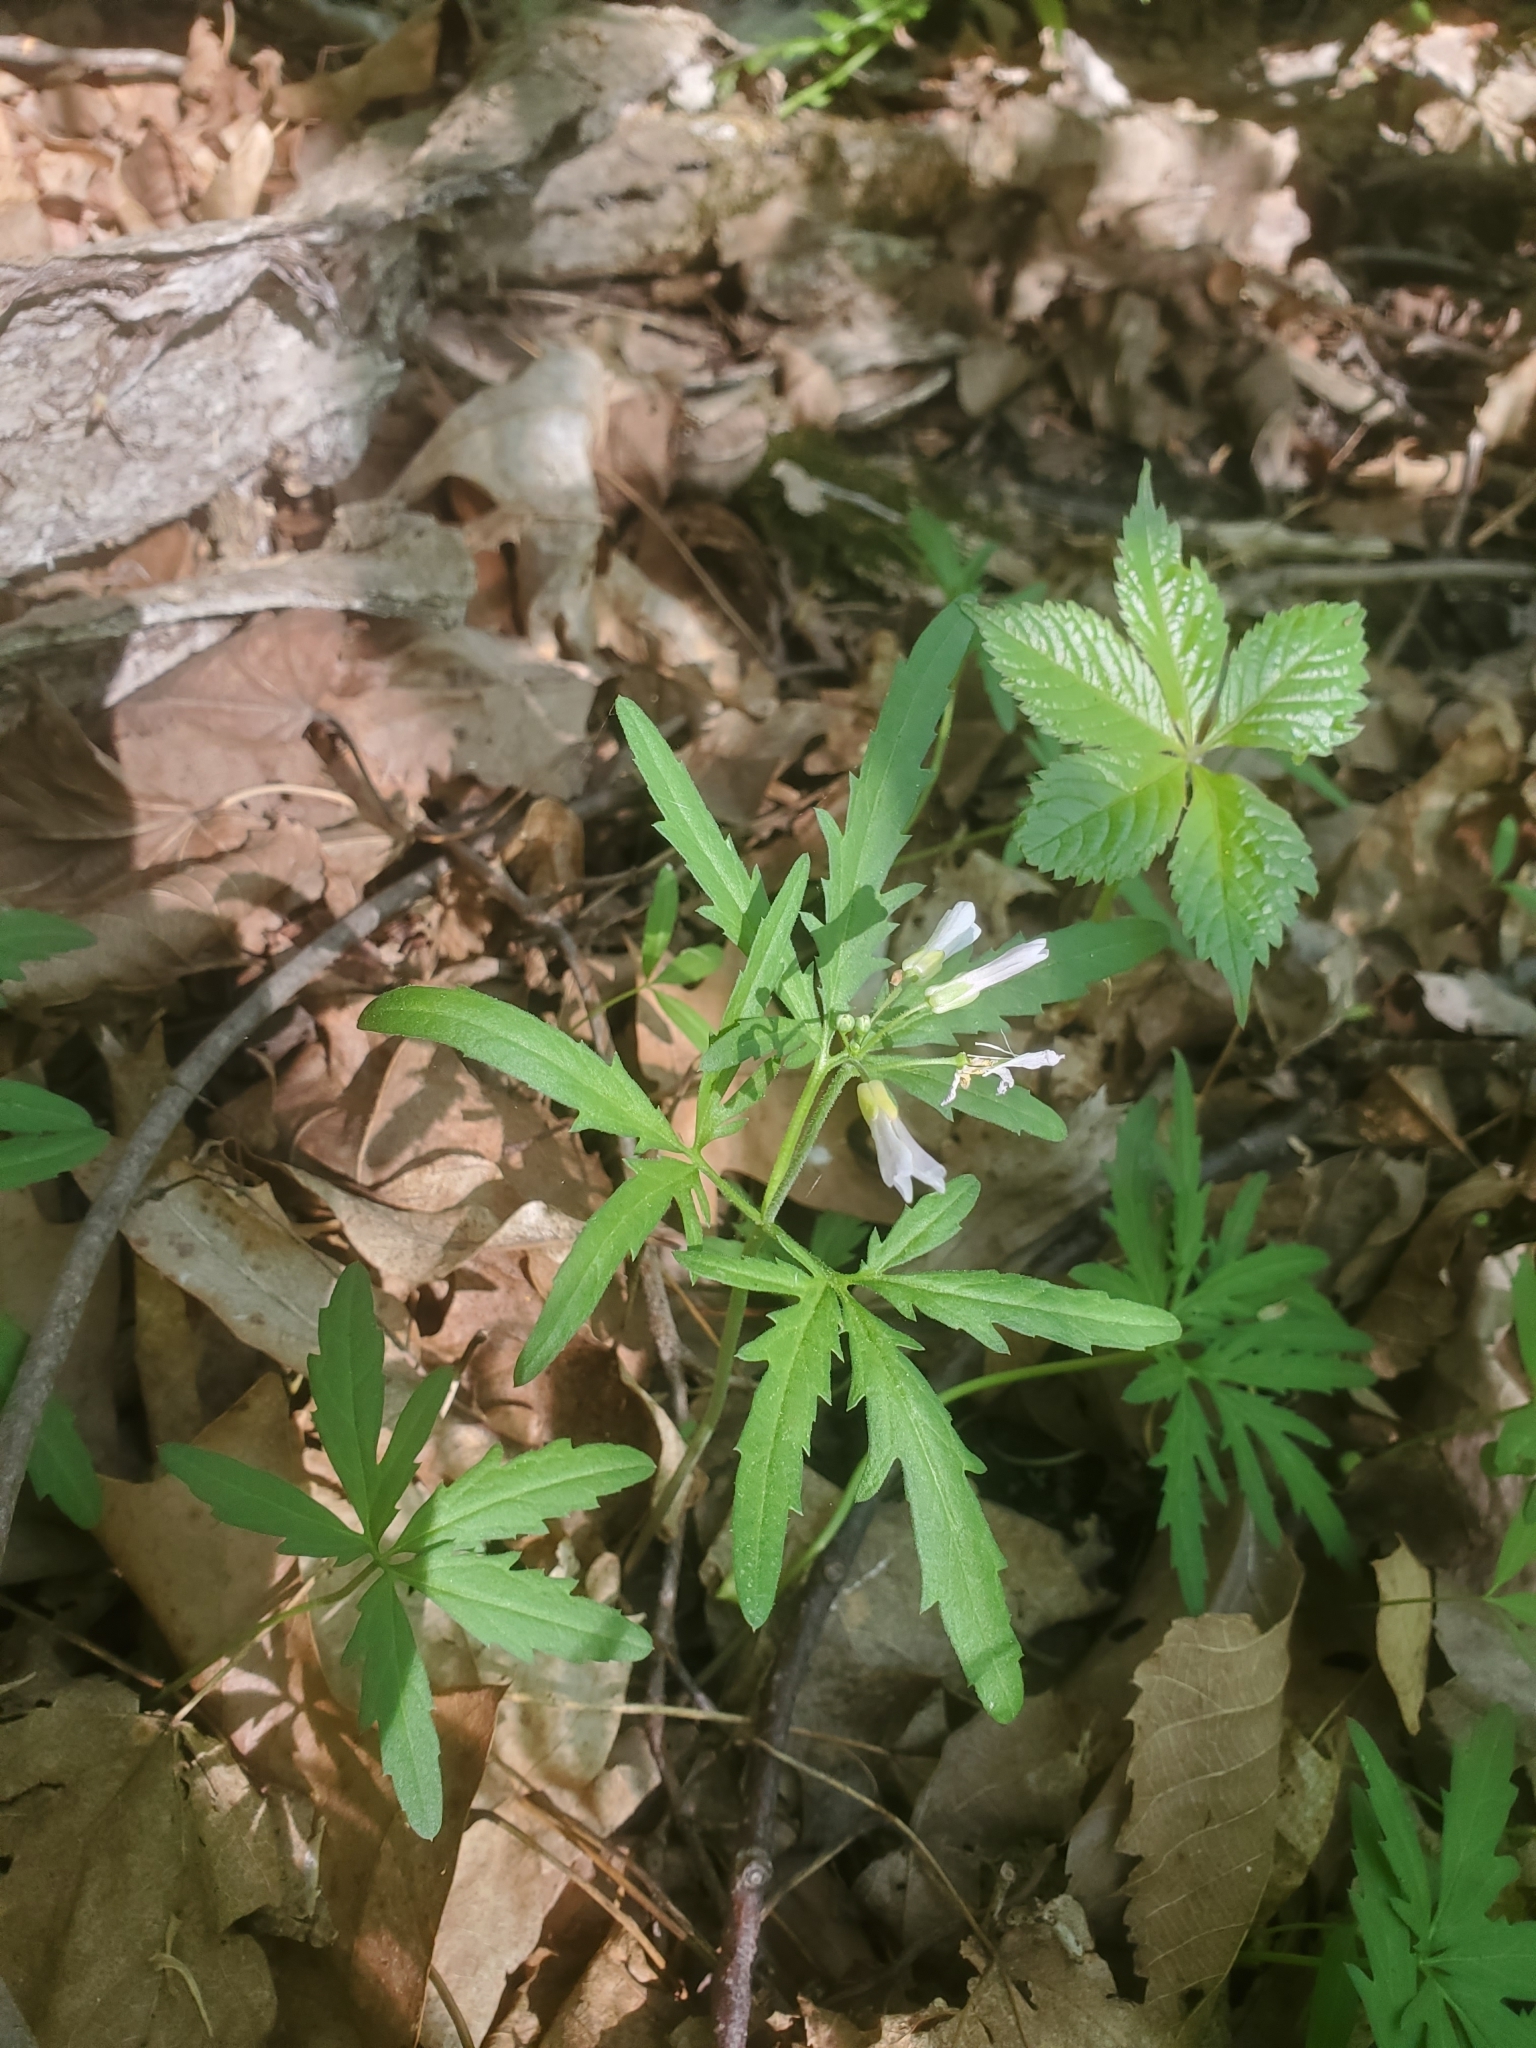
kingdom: Plantae
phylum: Tracheophyta
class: Magnoliopsida
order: Brassicales
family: Brassicaceae
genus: Cardamine
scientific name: Cardamine concatenata
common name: Cut-leaf toothcup
